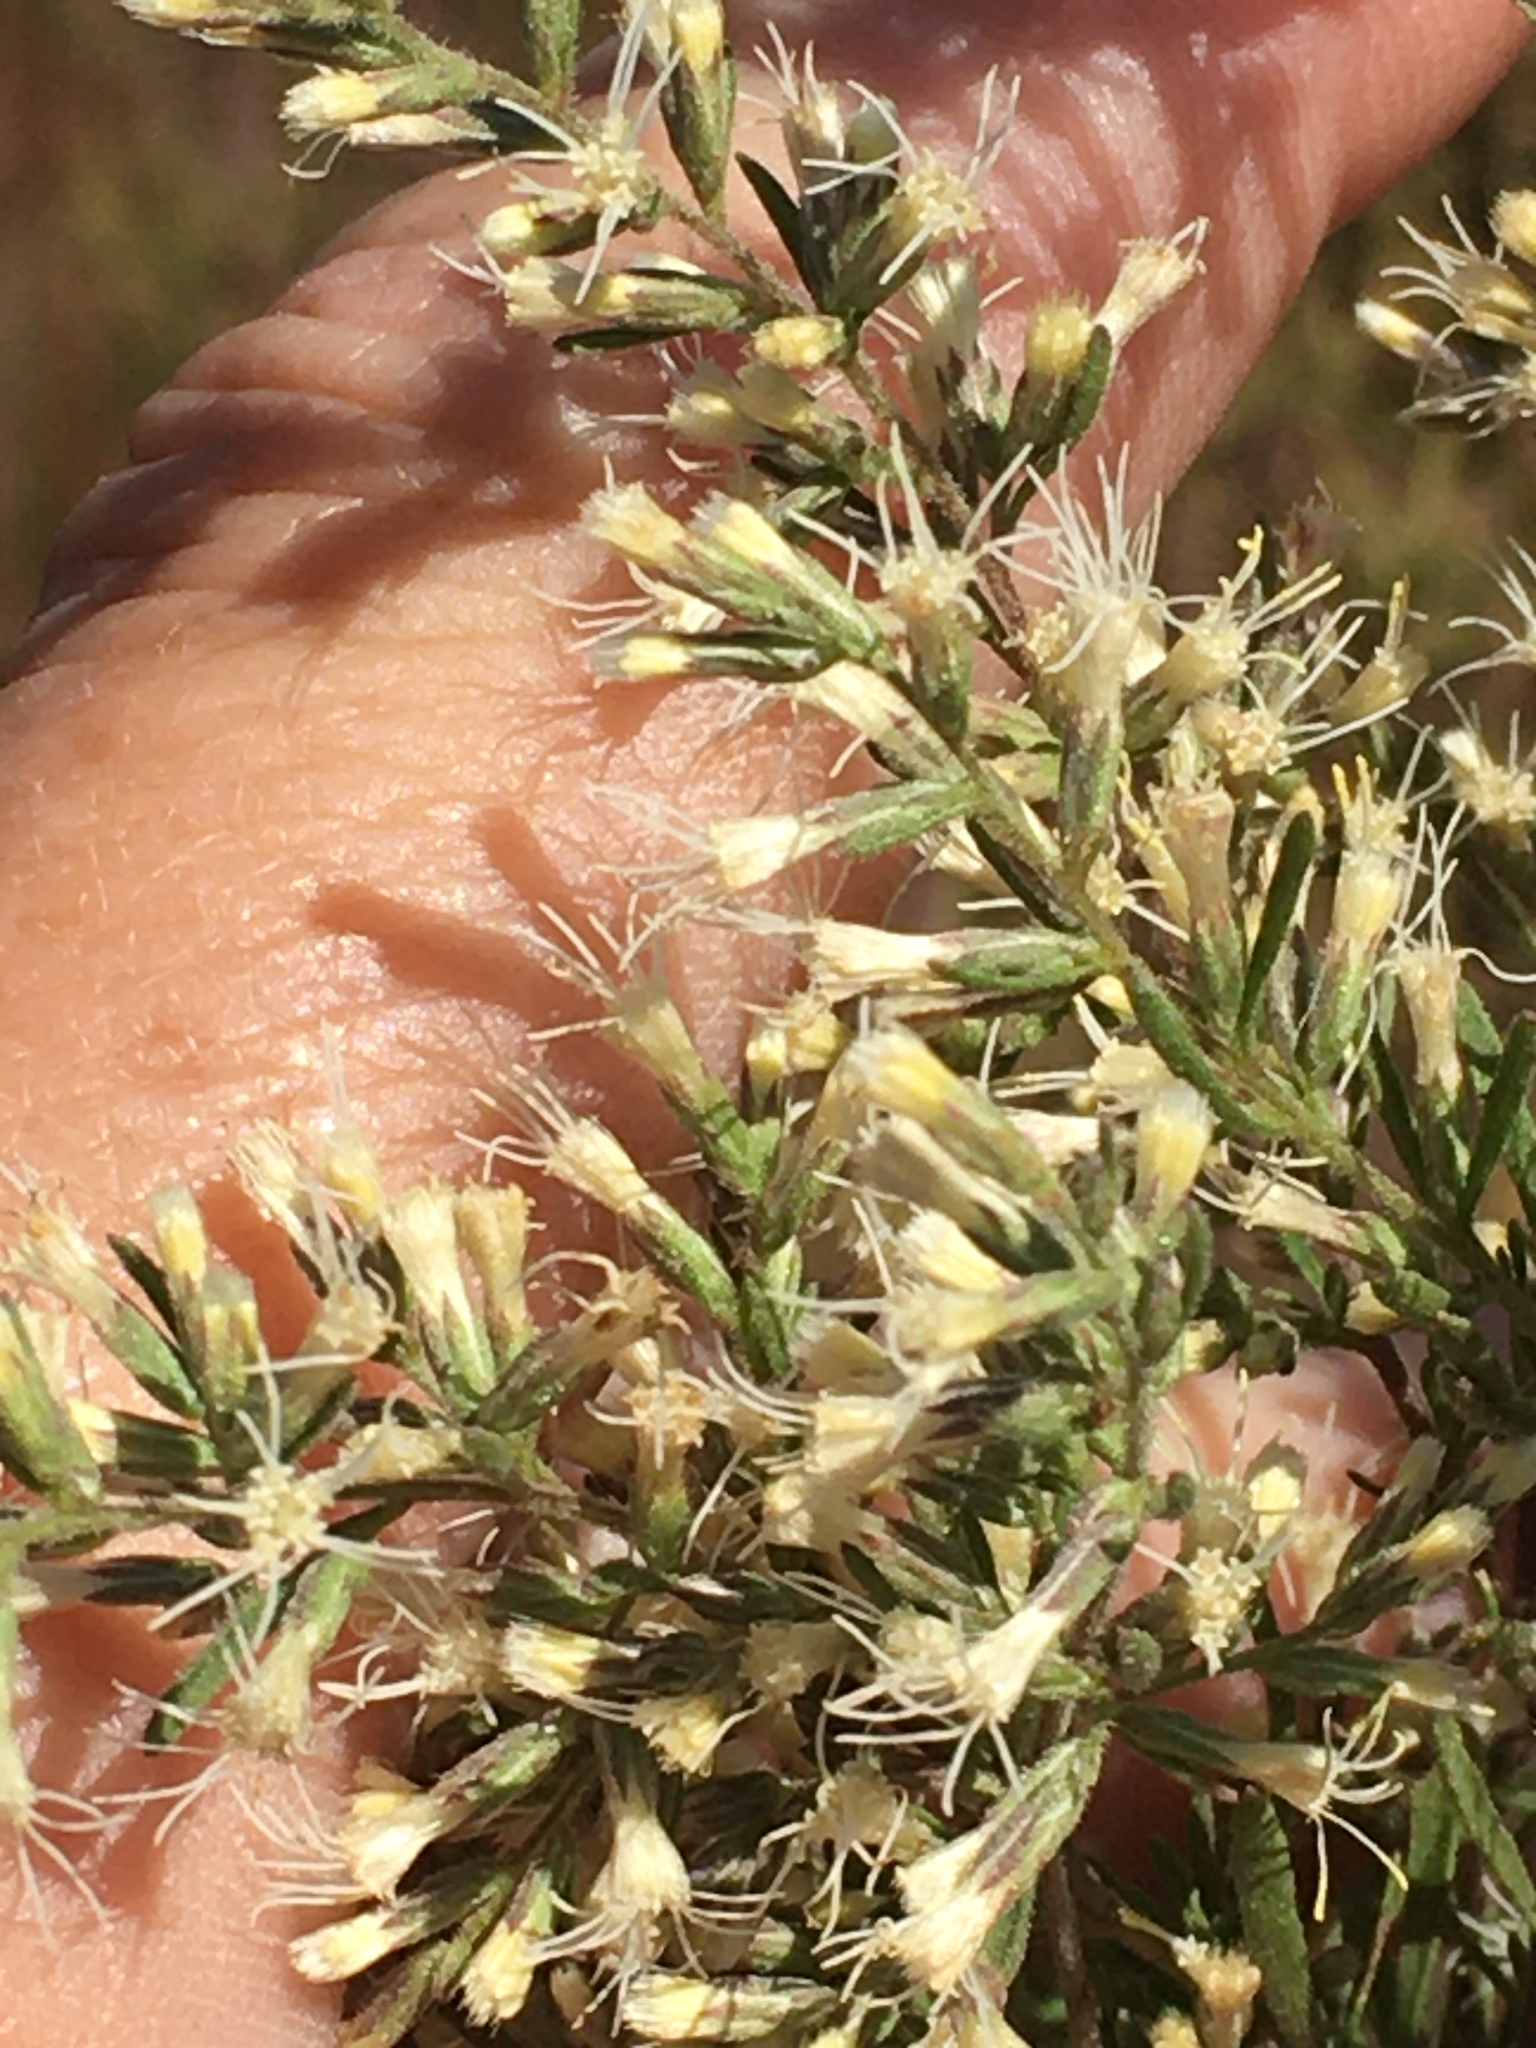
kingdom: Plantae
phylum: Tracheophyta
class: Magnoliopsida
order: Asterales
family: Asteraceae
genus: Eupatorium
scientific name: Eupatorium compositifolium
